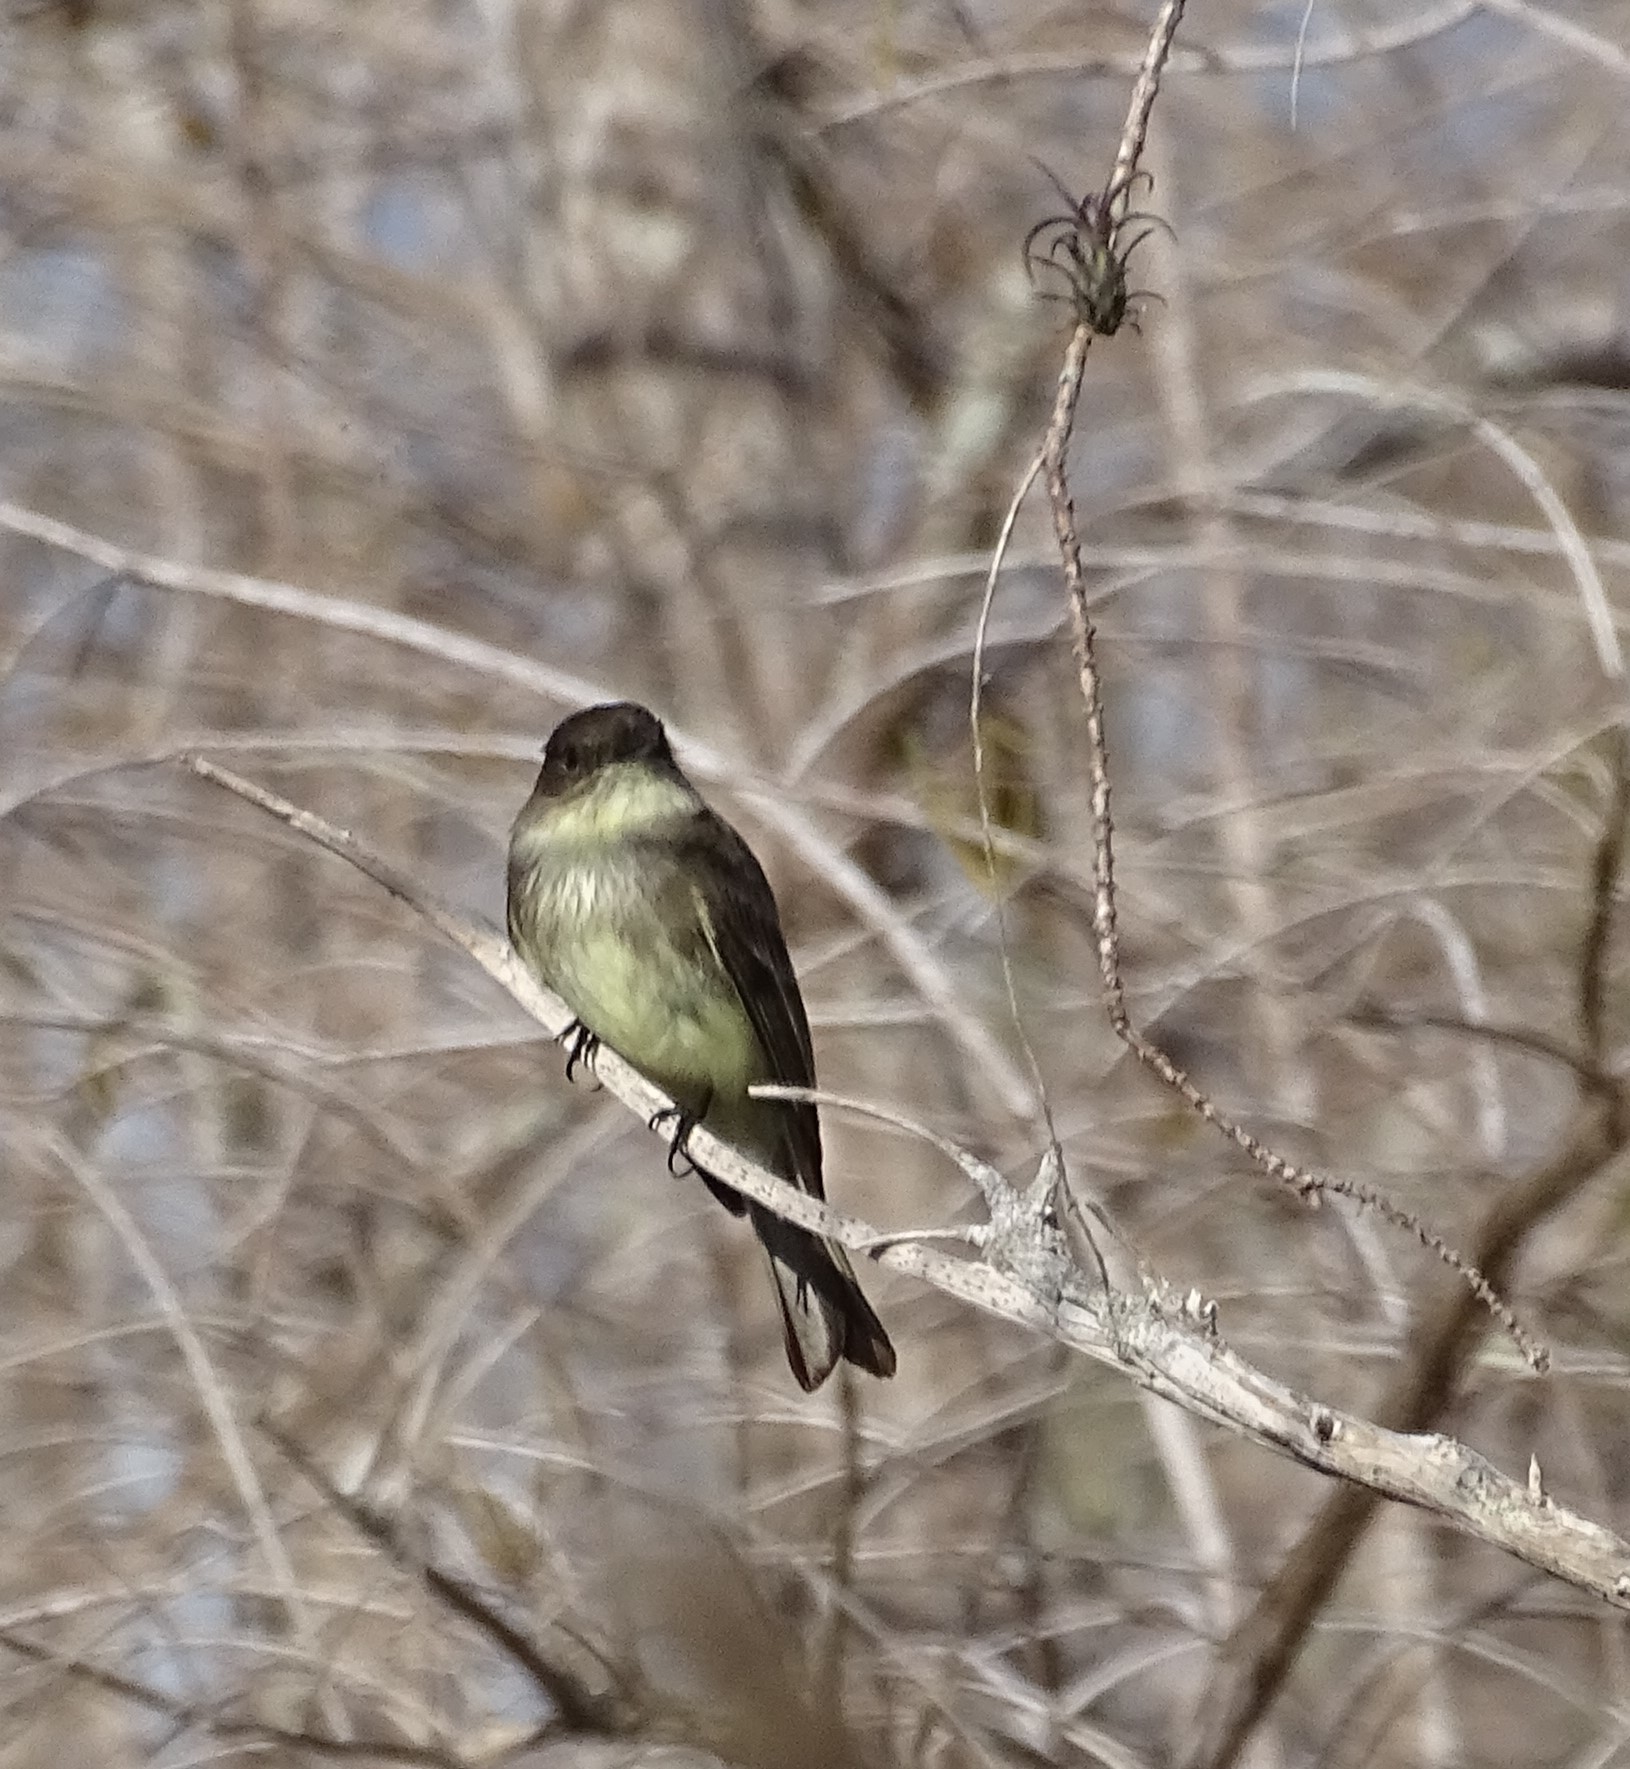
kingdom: Animalia
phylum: Chordata
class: Aves
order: Passeriformes
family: Tyrannidae
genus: Sayornis
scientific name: Sayornis phoebe
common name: Eastern phoebe
